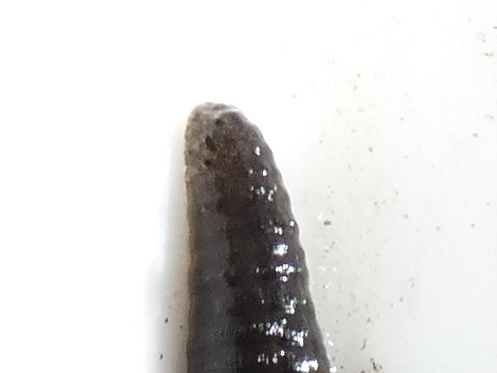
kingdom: Animalia
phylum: Annelida
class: Clitellata
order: Arhynchobdellida
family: Haemopidae
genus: Haemopis
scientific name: Haemopis sanguisuga
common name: Horse leech
